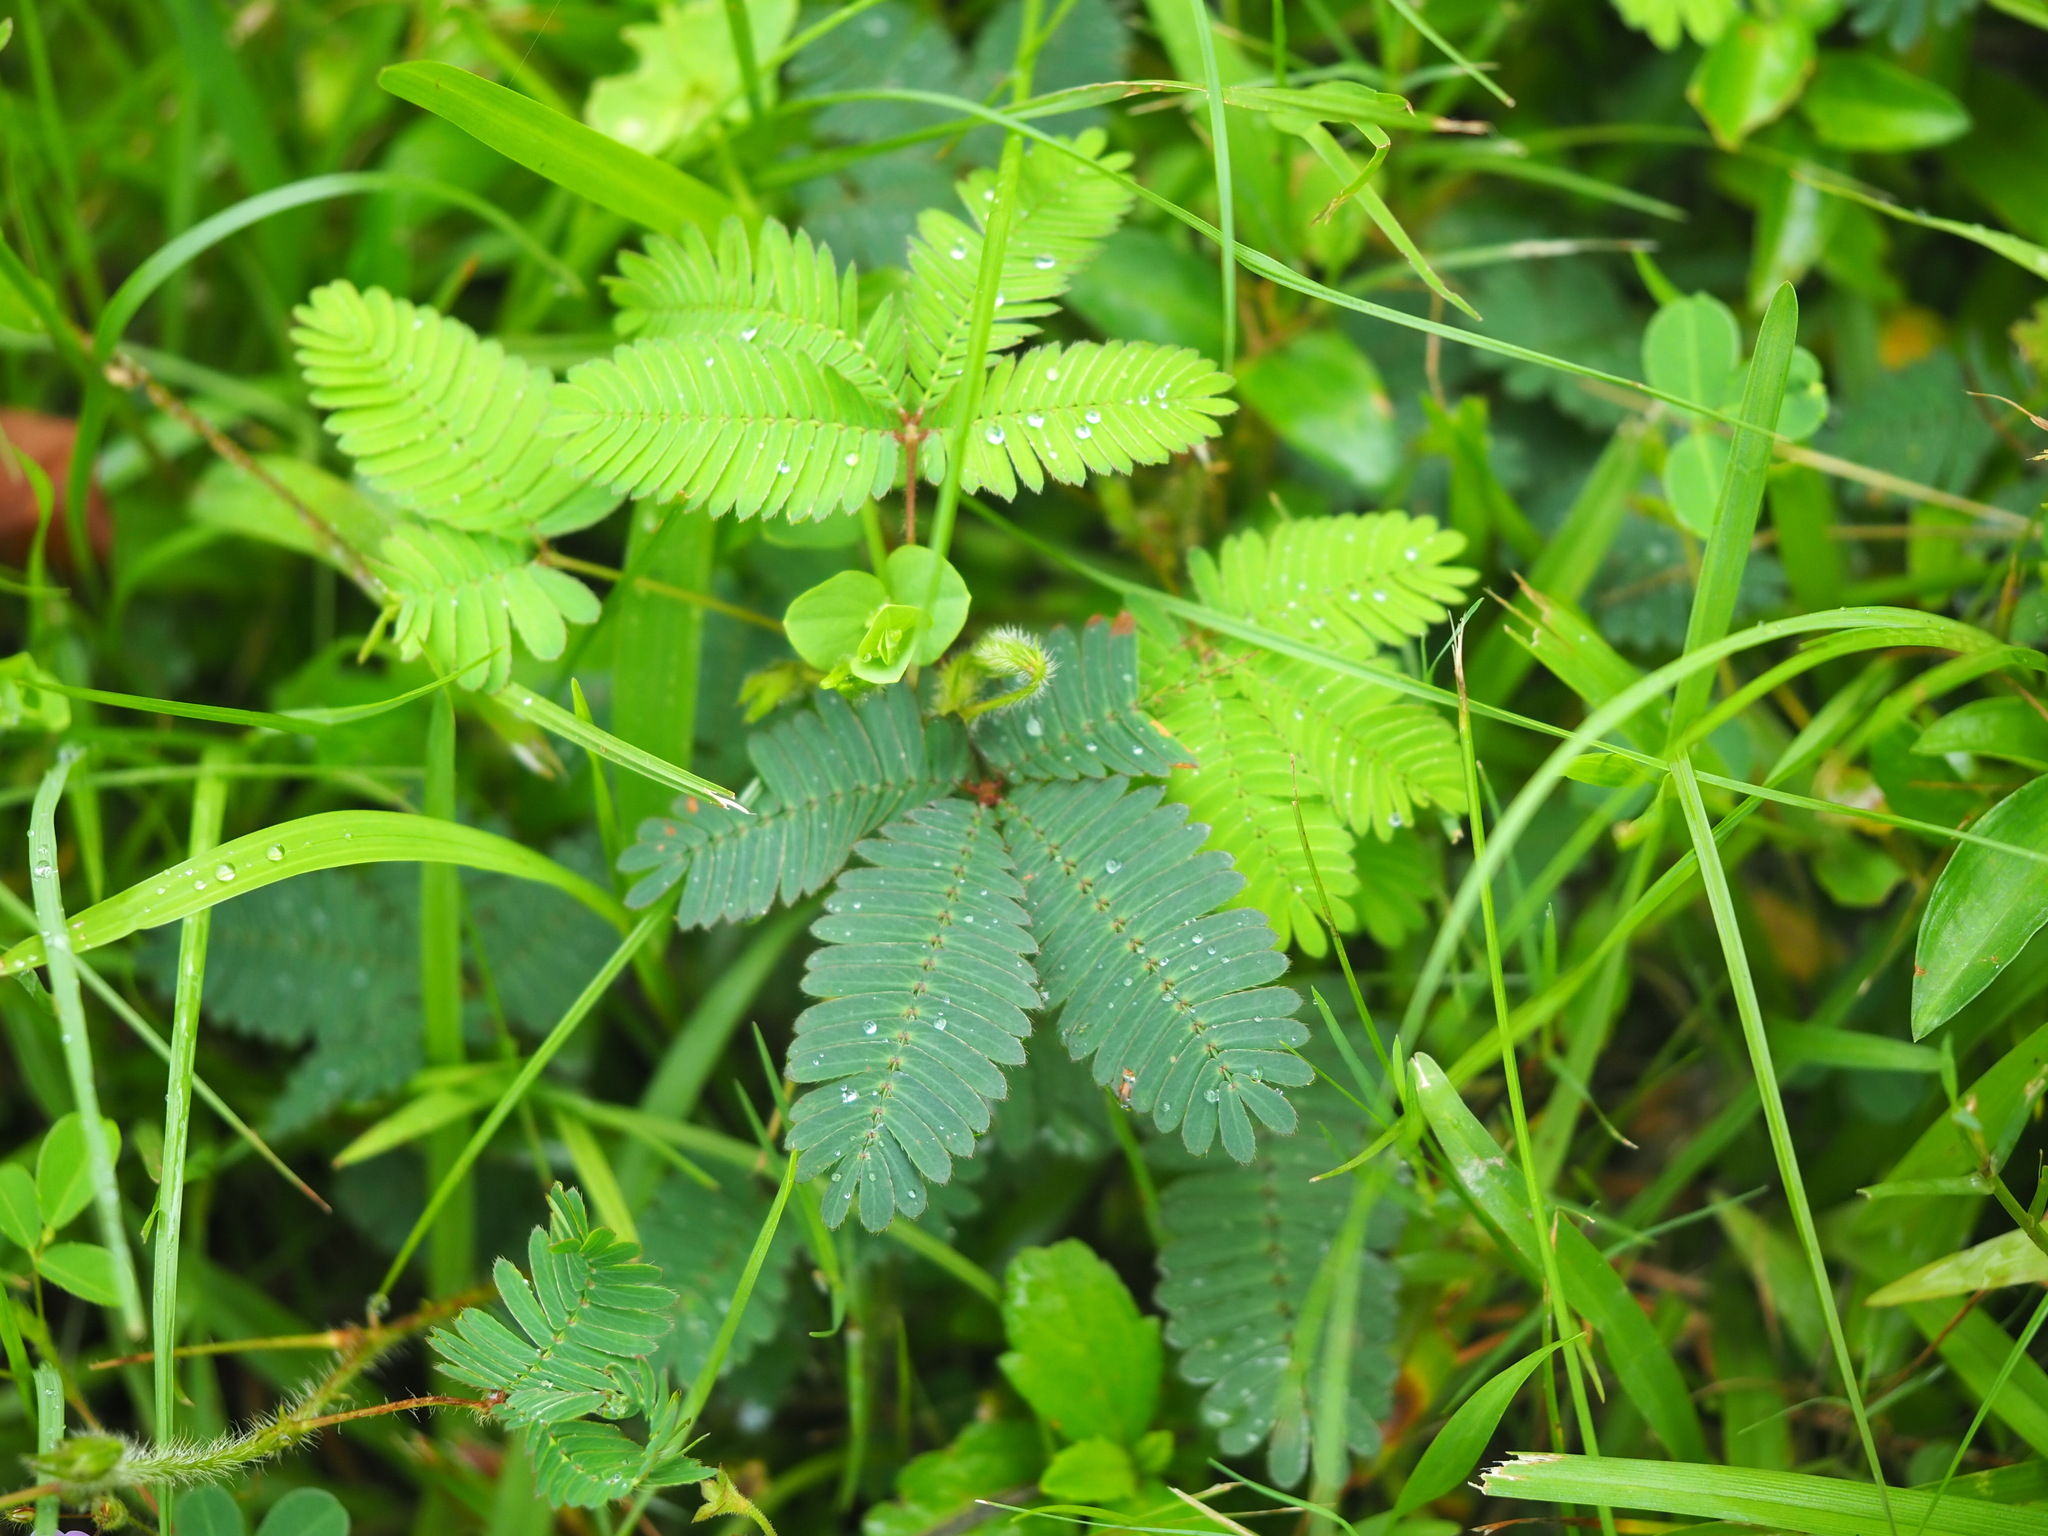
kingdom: Plantae
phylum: Tracheophyta
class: Magnoliopsida
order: Fabales
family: Fabaceae
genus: Mimosa
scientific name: Mimosa pudica
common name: Sensitive plant
